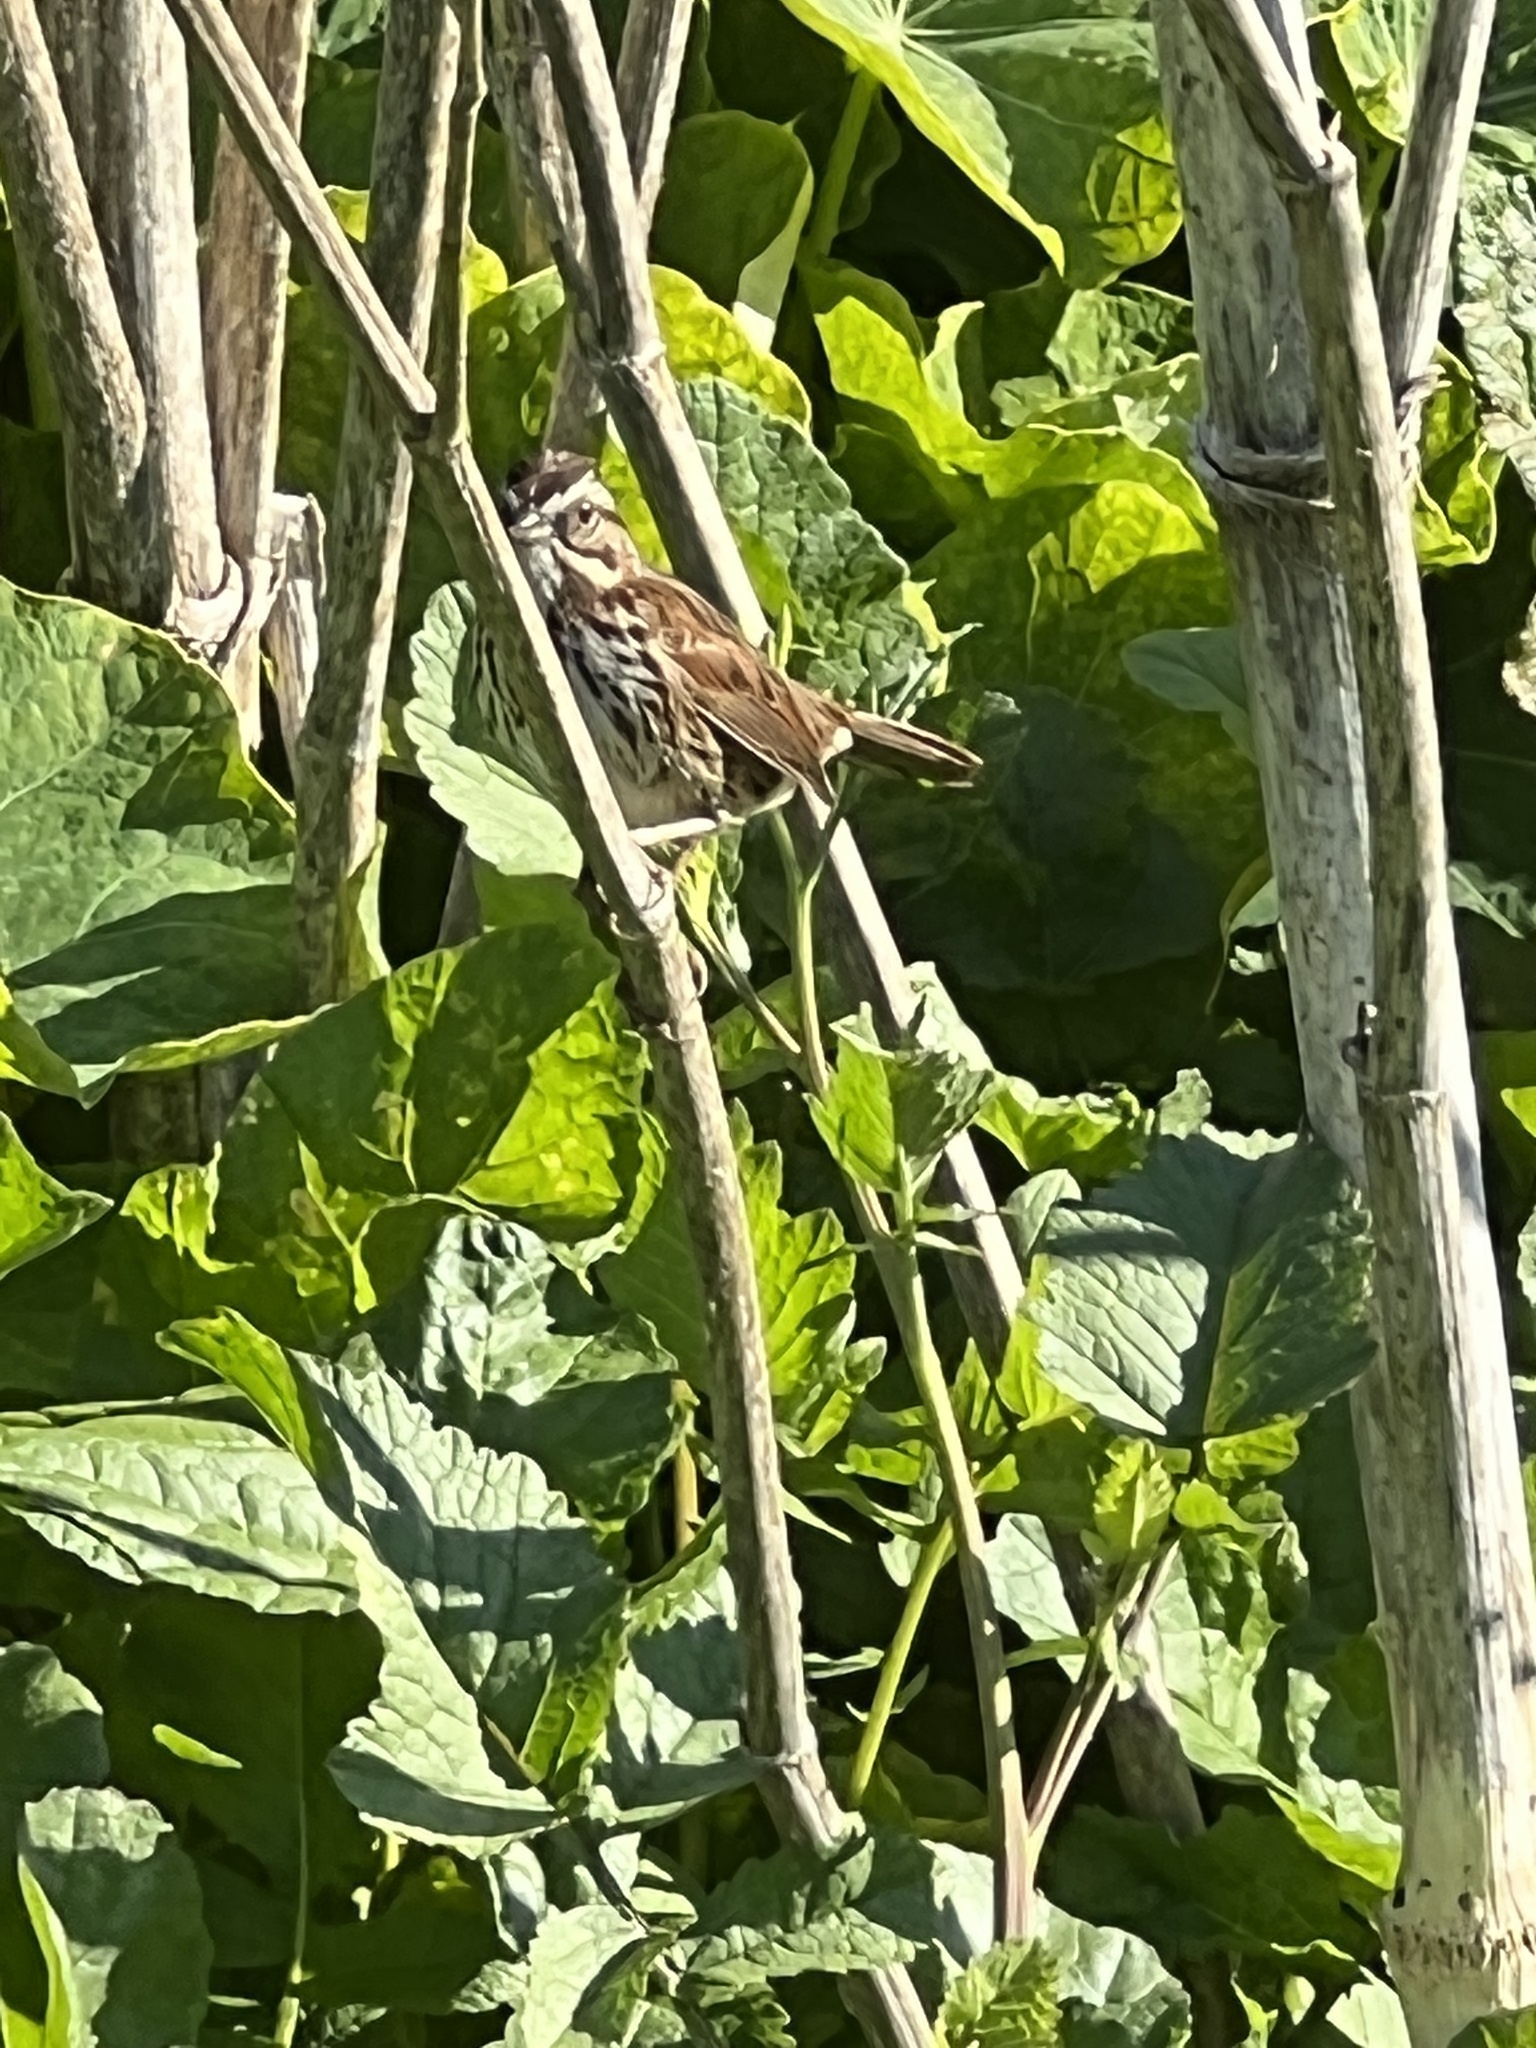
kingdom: Animalia
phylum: Chordata
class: Aves
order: Passeriformes
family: Passerellidae
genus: Melospiza
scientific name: Melospiza melodia
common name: Song sparrow
